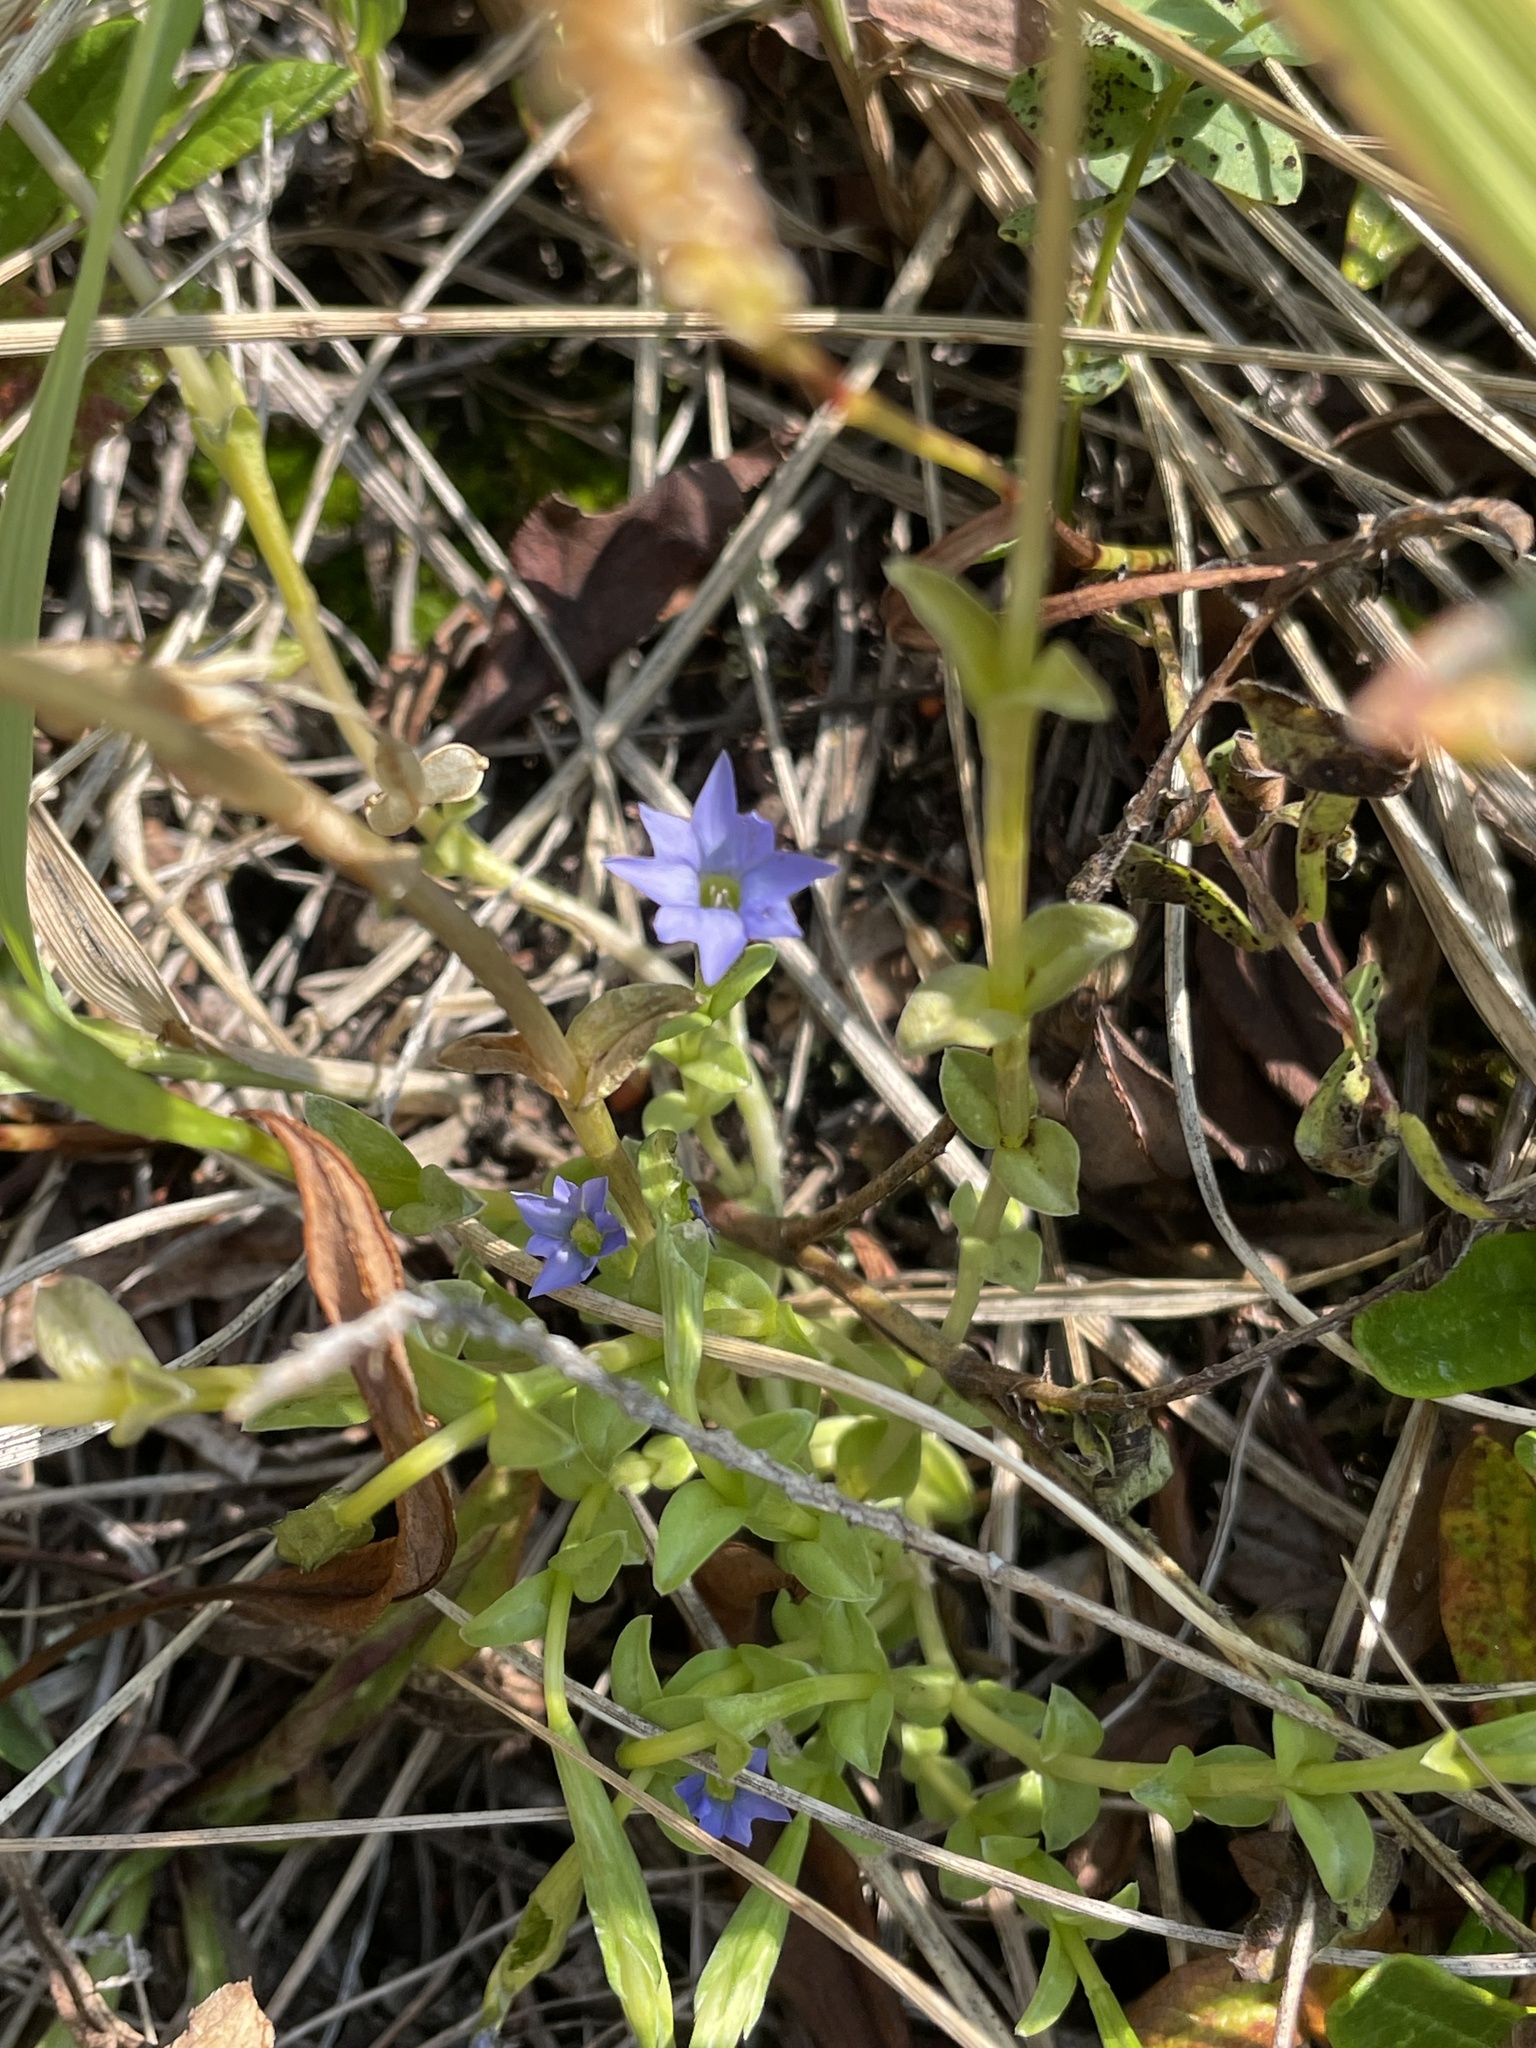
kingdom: Plantae
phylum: Tracheophyta
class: Magnoliopsida
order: Gentianales
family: Gentianaceae
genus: Gentiana
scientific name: Gentiana prostrata
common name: Moss gentian
